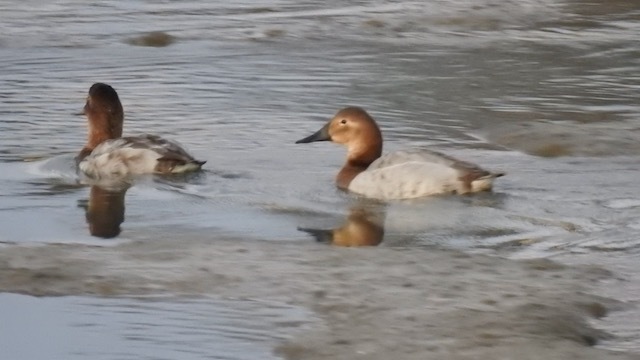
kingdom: Animalia
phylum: Chordata
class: Aves
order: Anseriformes
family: Anatidae
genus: Aythya
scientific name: Aythya valisineria
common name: Canvasback
